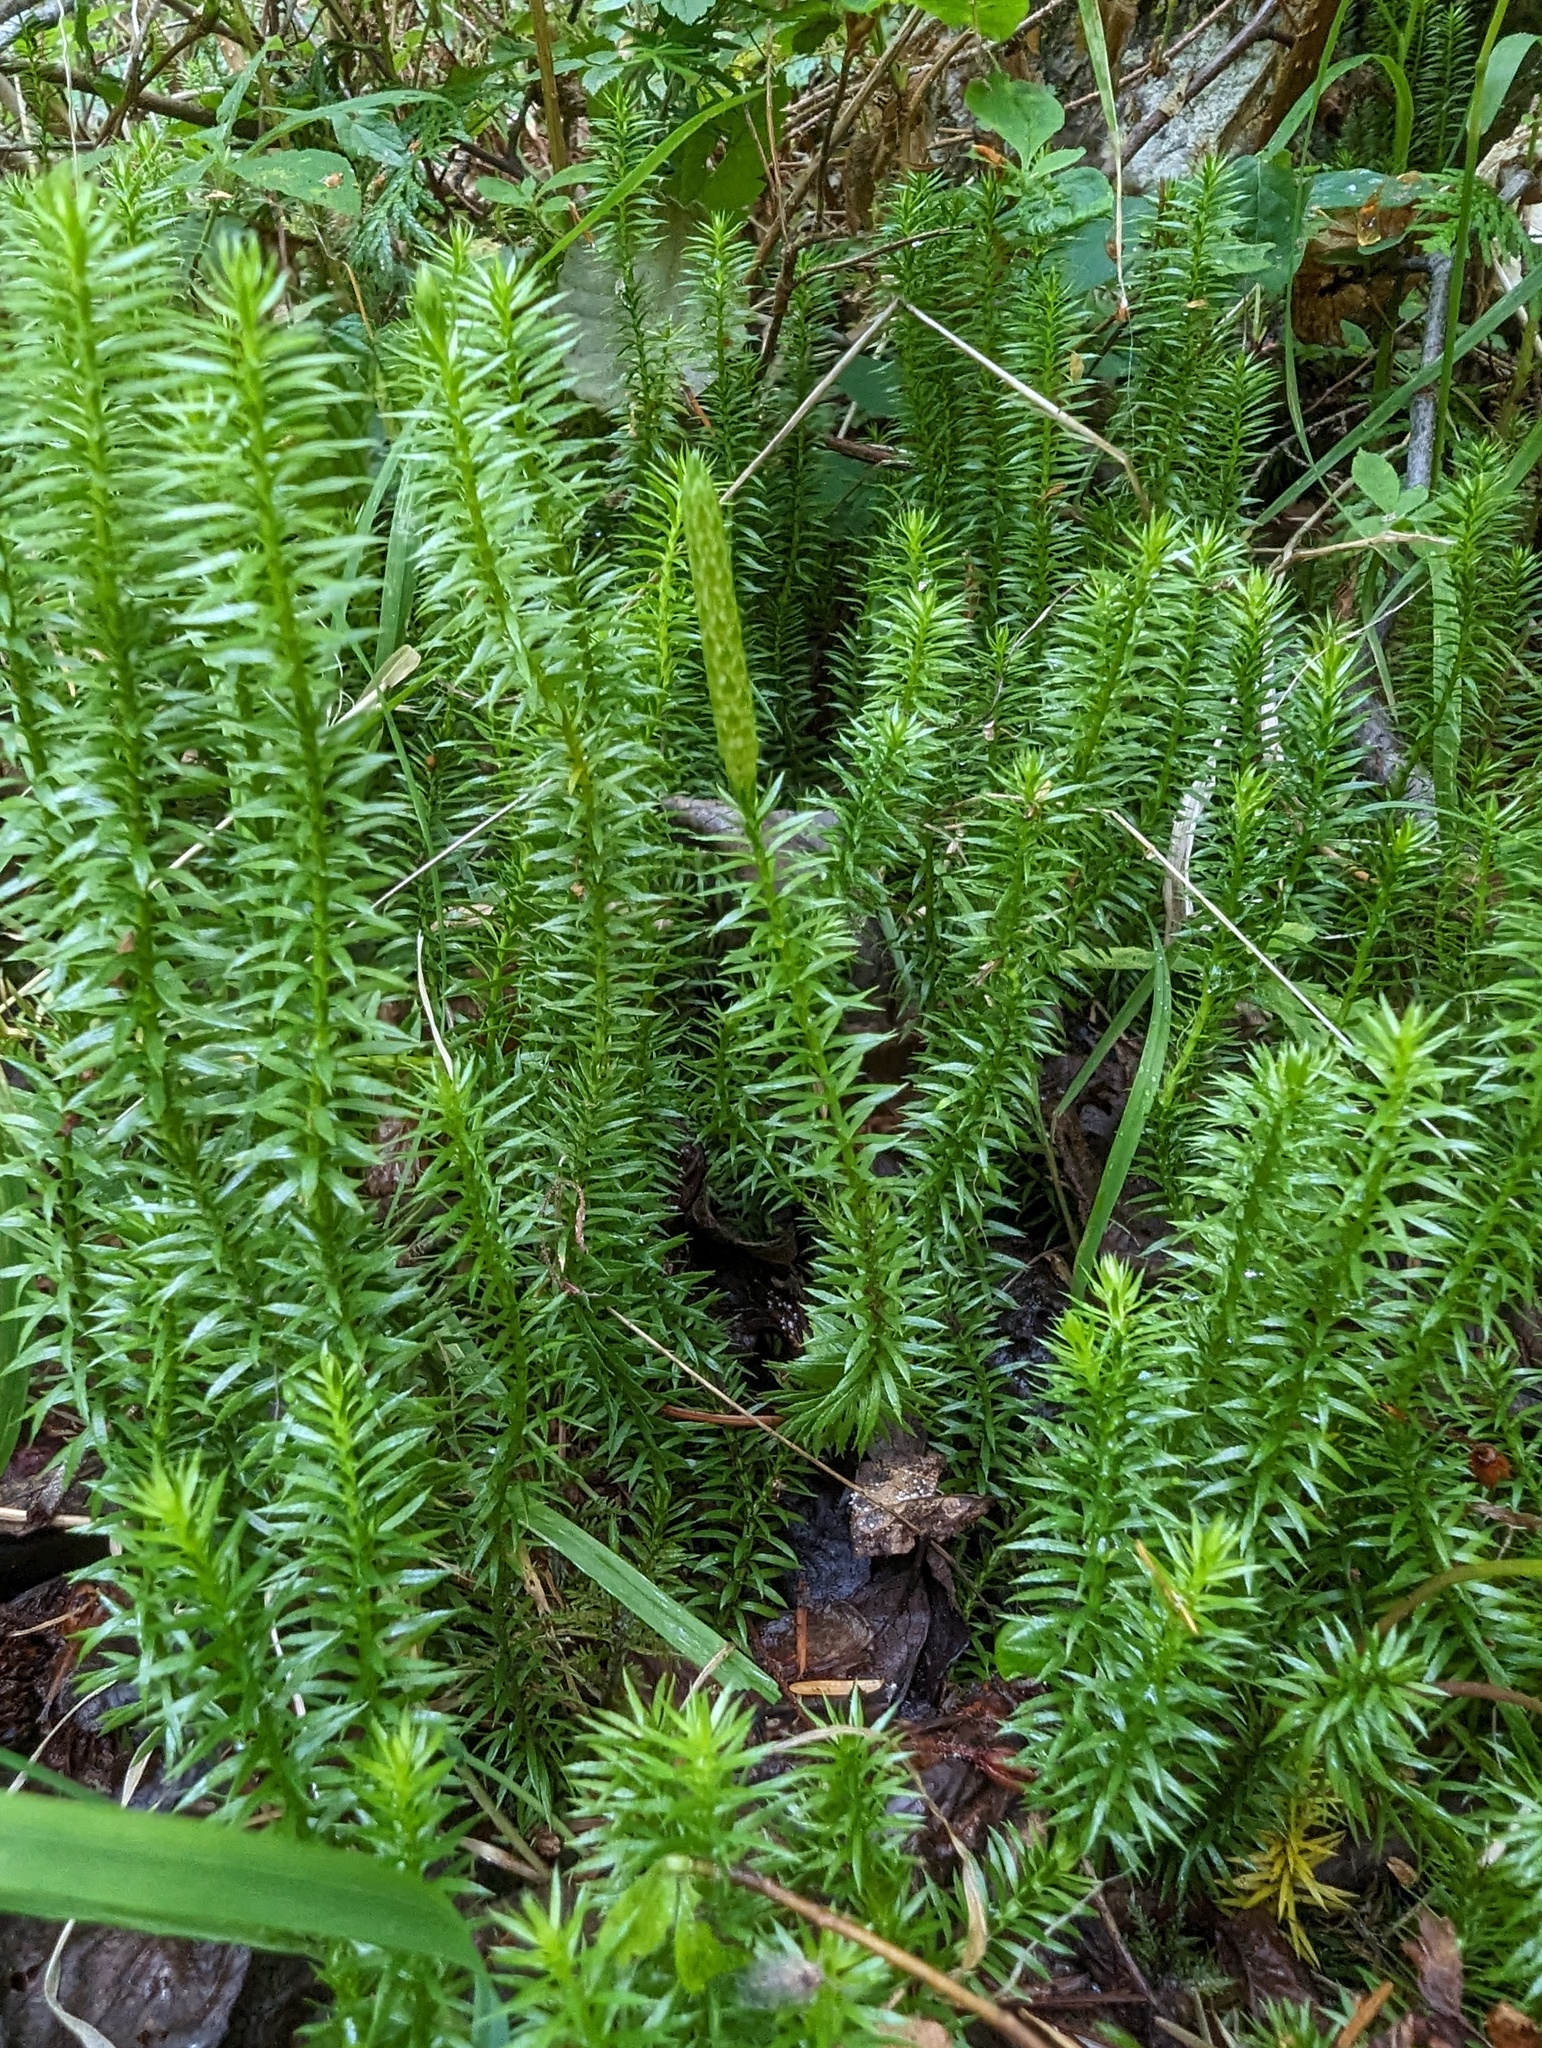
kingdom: Plantae
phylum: Tracheophyta
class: Lycopodiopsida
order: Lycopodiales
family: Lycopodiaceae
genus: Spinulum
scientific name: Spinulum annotinum
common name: Interrupted club-moss
